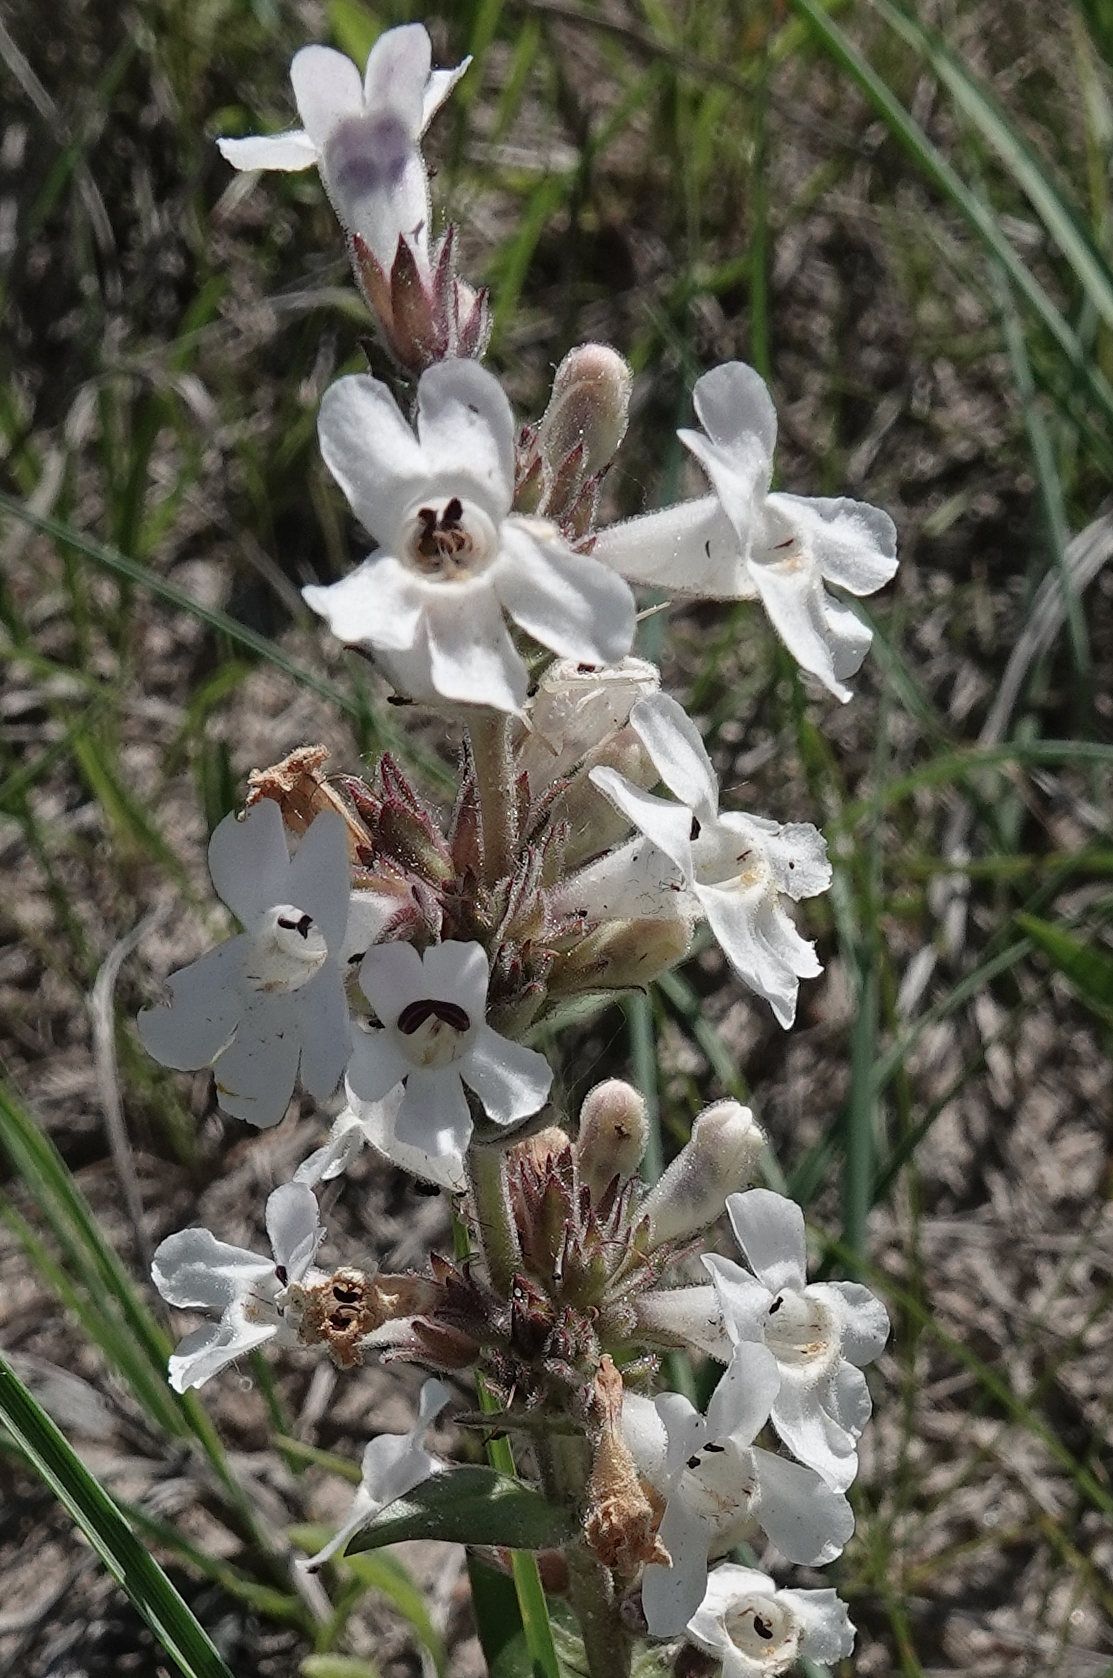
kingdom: Plantae
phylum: Tracheophyta
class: Magnoliopsida
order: Lamiales
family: Plantaginaceae
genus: Penstemon
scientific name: Penstemon albidus
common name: White beardtongue
